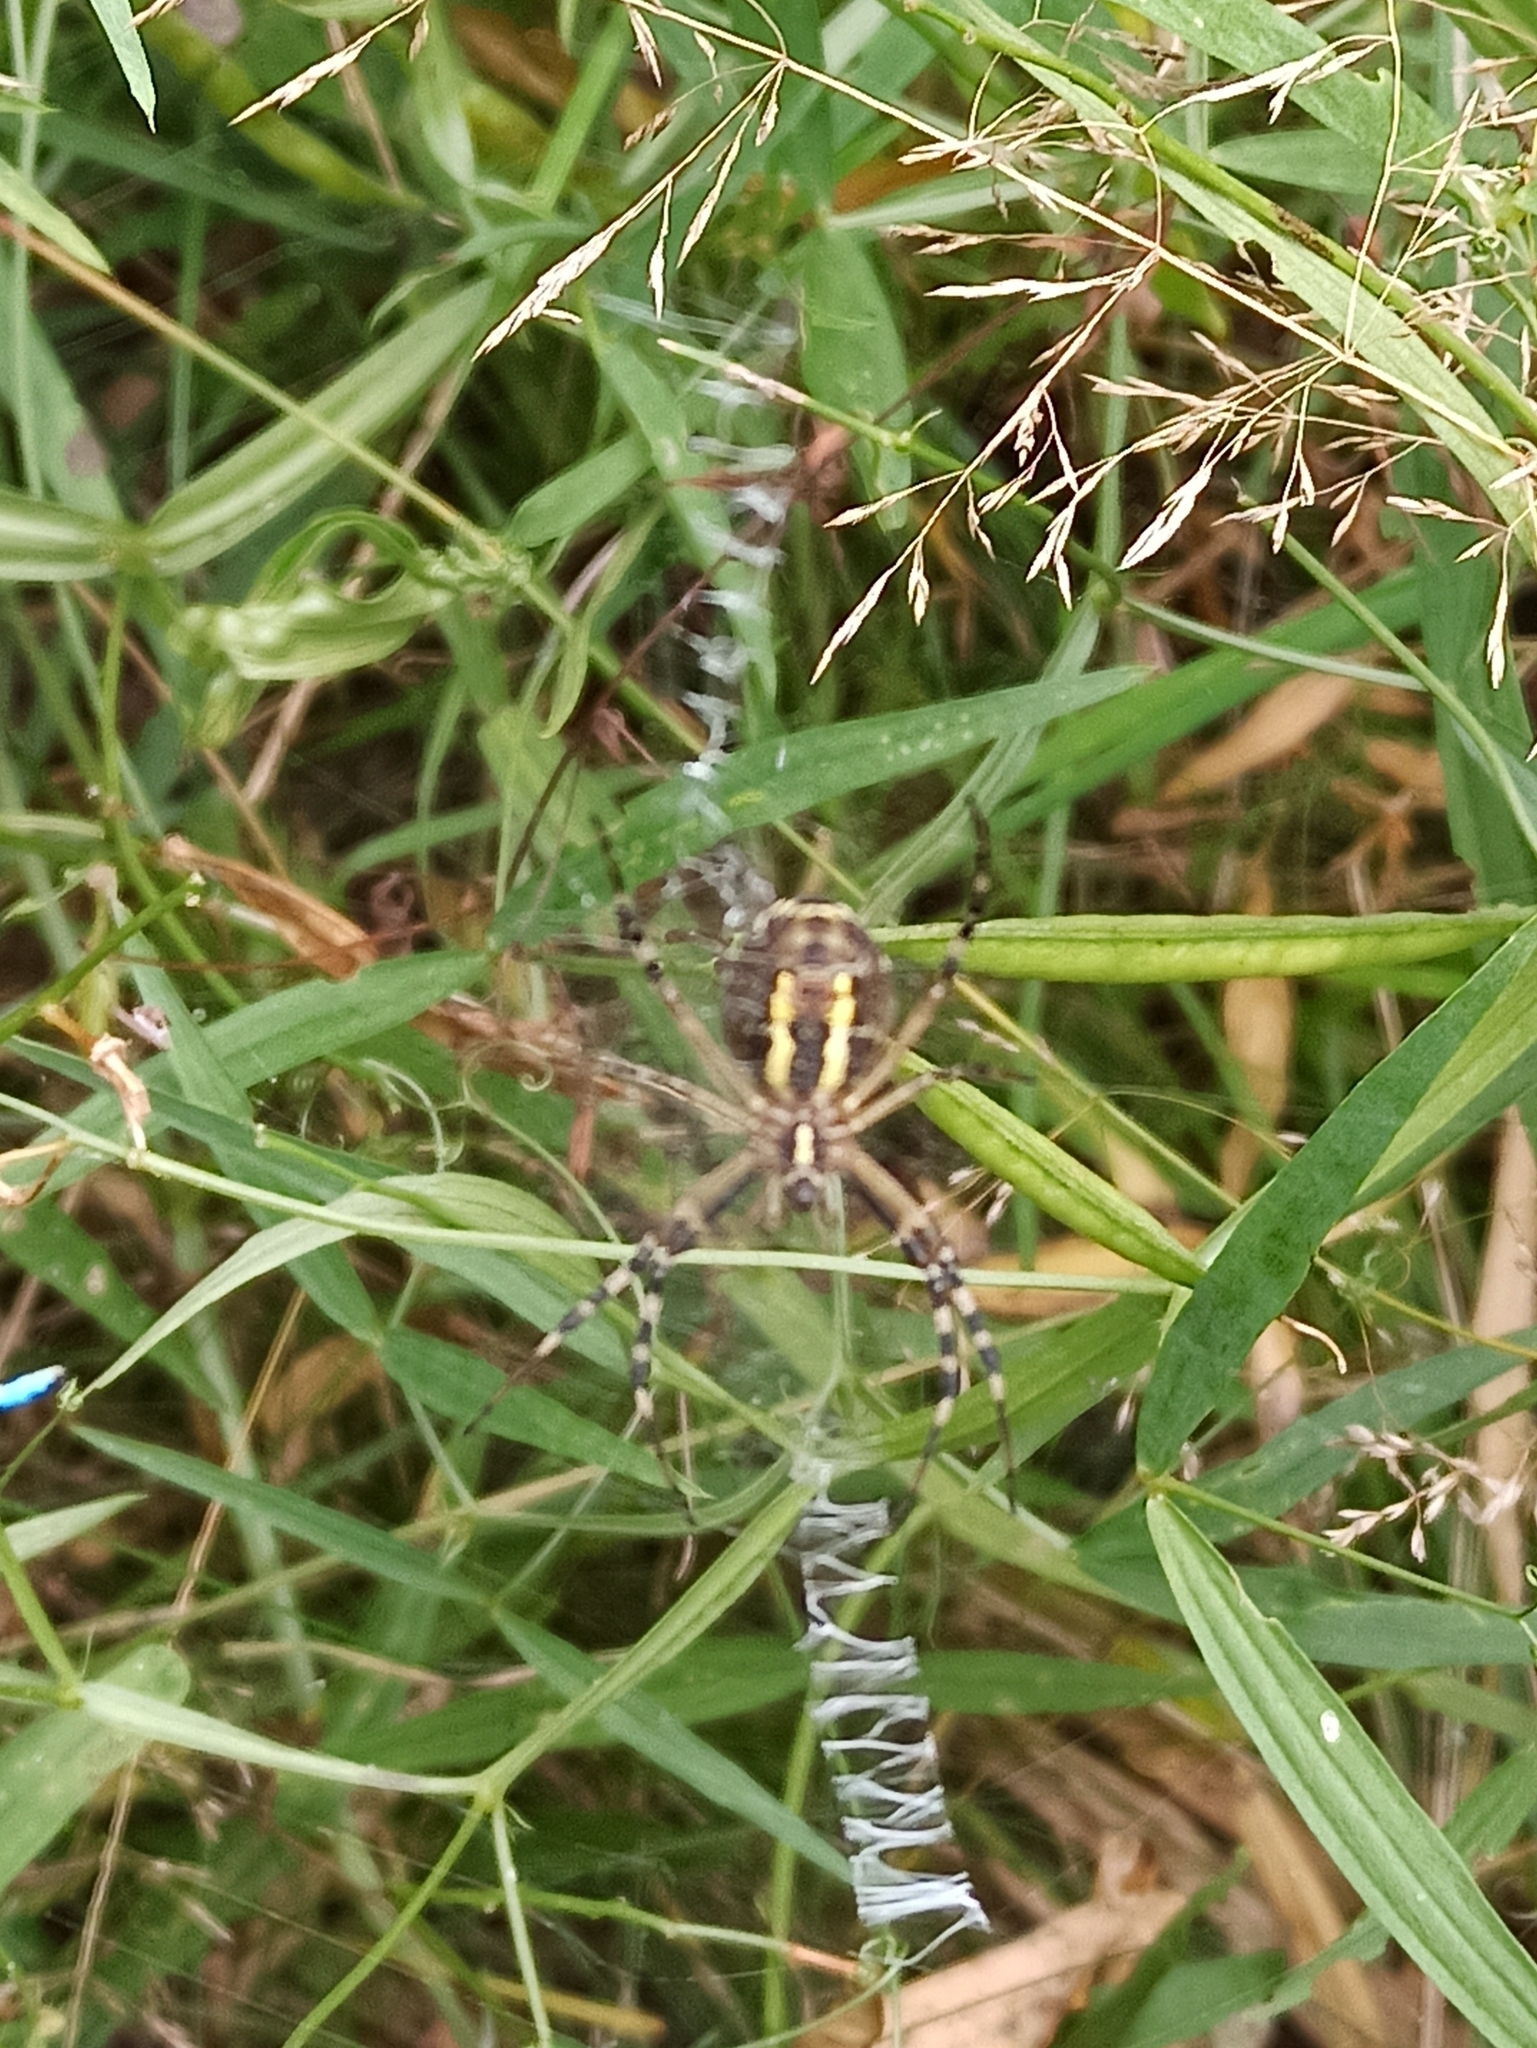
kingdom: Animalia
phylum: Arthropoda
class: Arachnida
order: Araneae
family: Araneidae
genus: Argiope
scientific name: Argiope bruennichi
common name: Wasp spider
